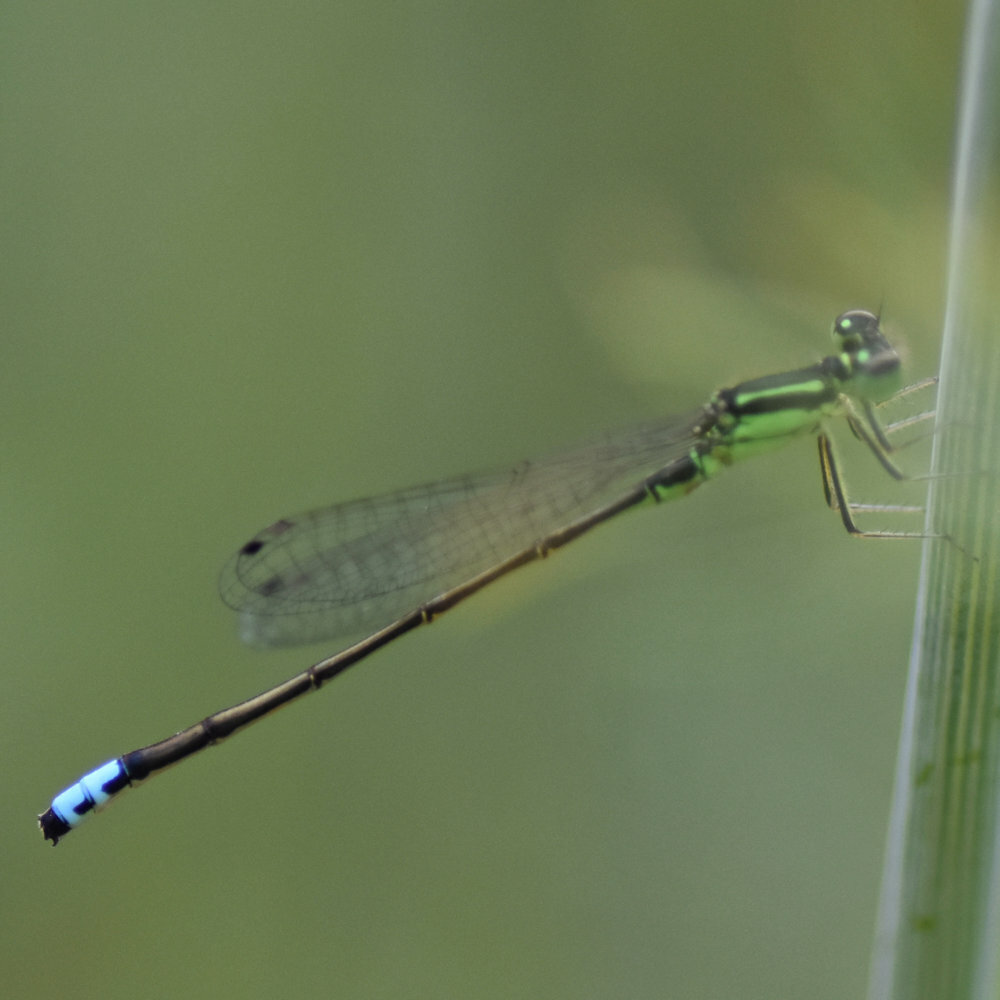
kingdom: Animalia
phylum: Arthropoda
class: Insecta
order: Odonata
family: Coenagrionidae
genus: Ischnura
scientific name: Ischnura verticalis
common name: Eastern forktail
